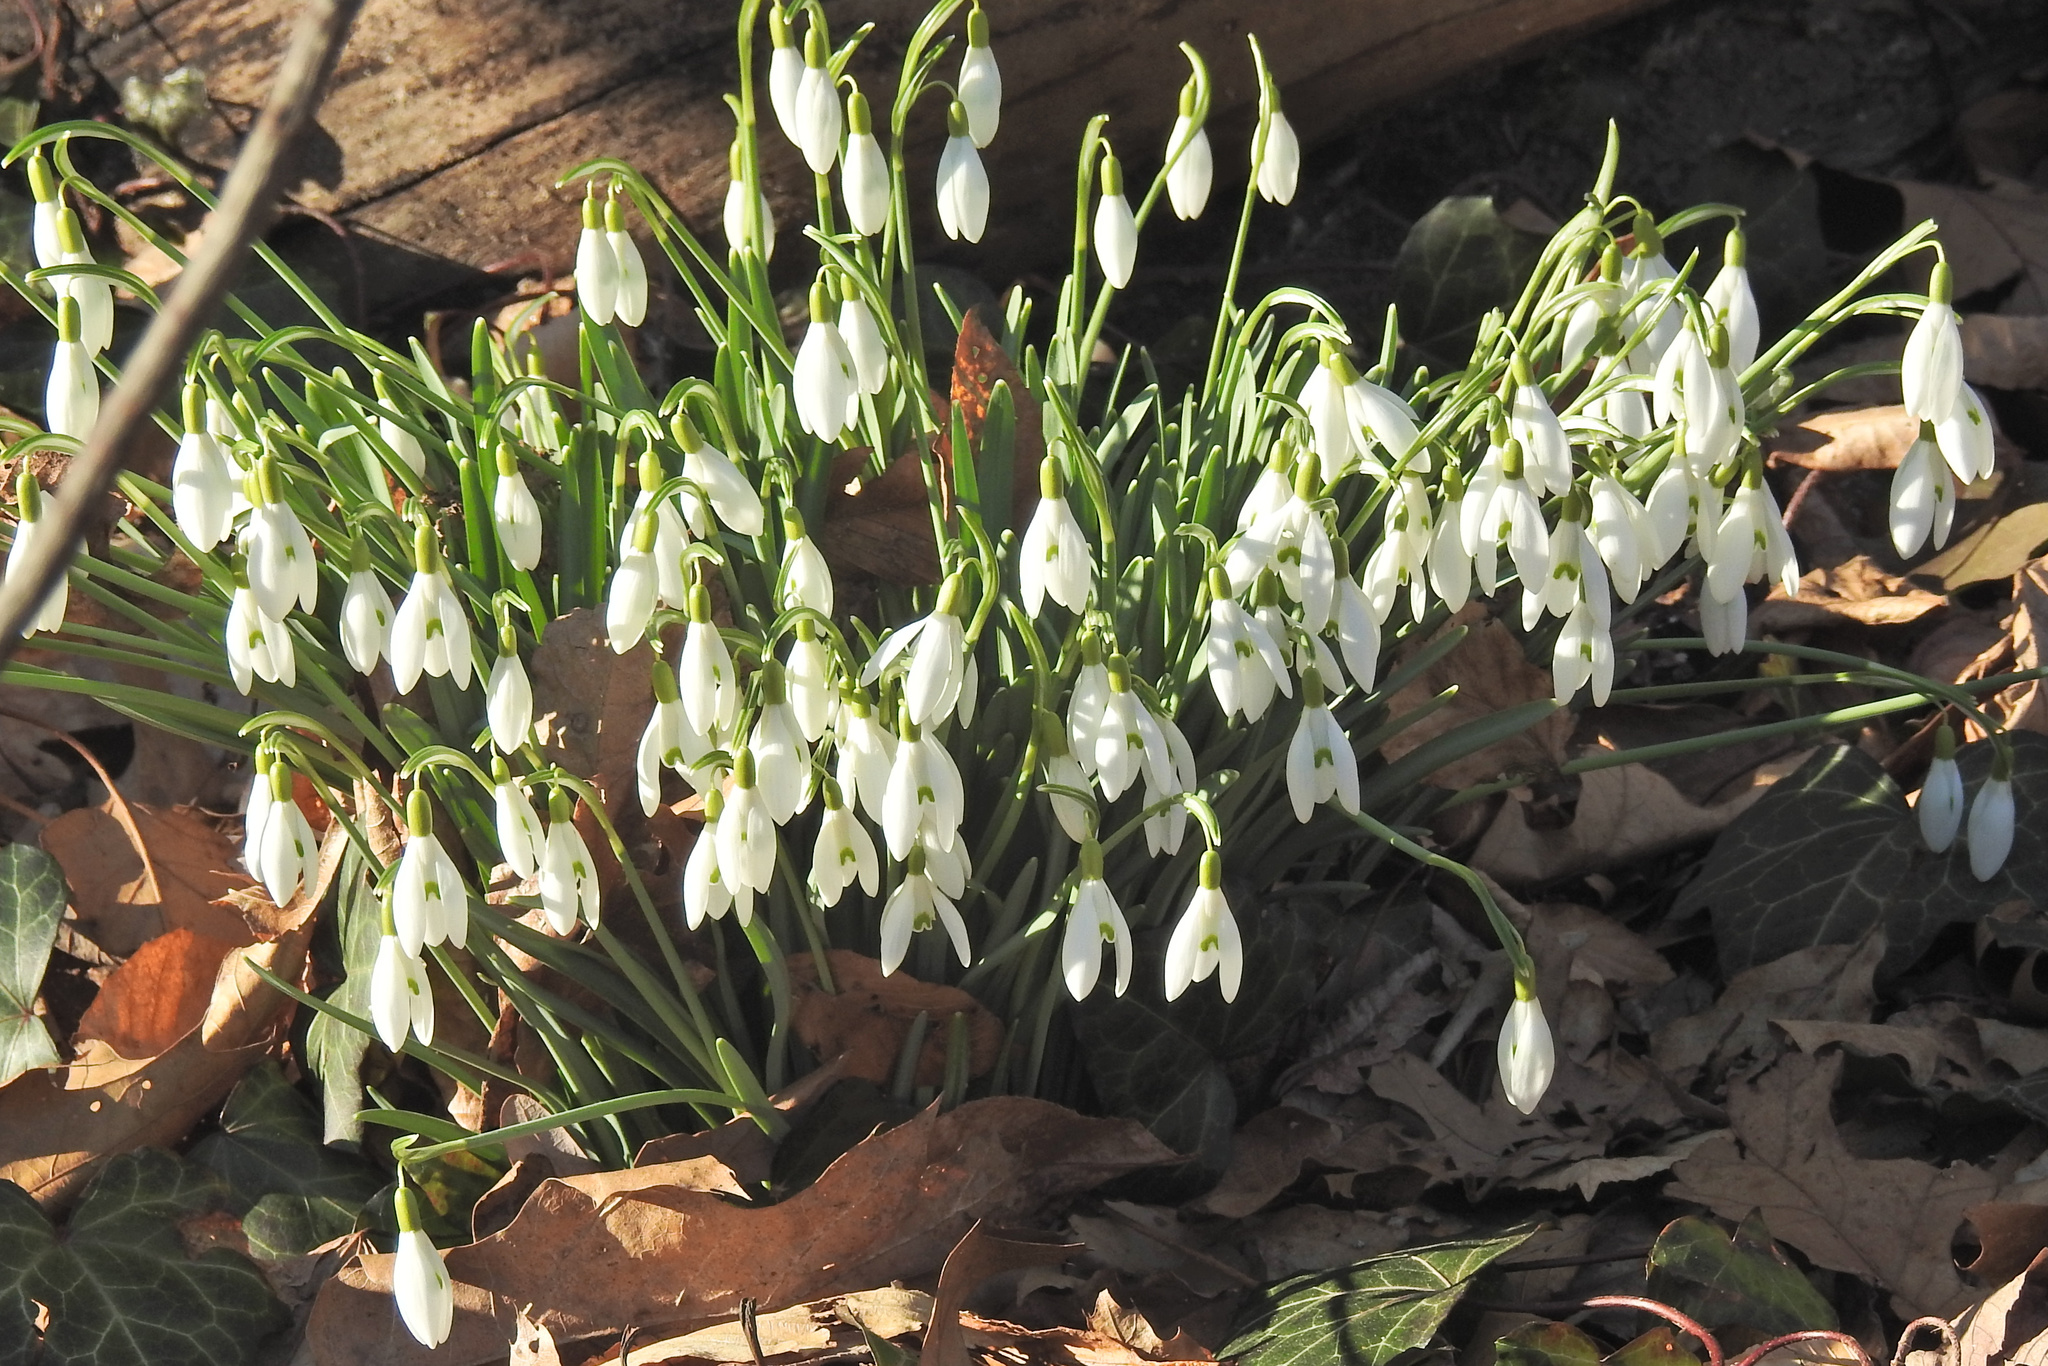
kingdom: Plantae
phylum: Tracheophyta
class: Liliopsida
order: Asparagales
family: Amaryllidaceae
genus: Galanthus
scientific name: Galanthus nivalis
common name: Snowdrop
